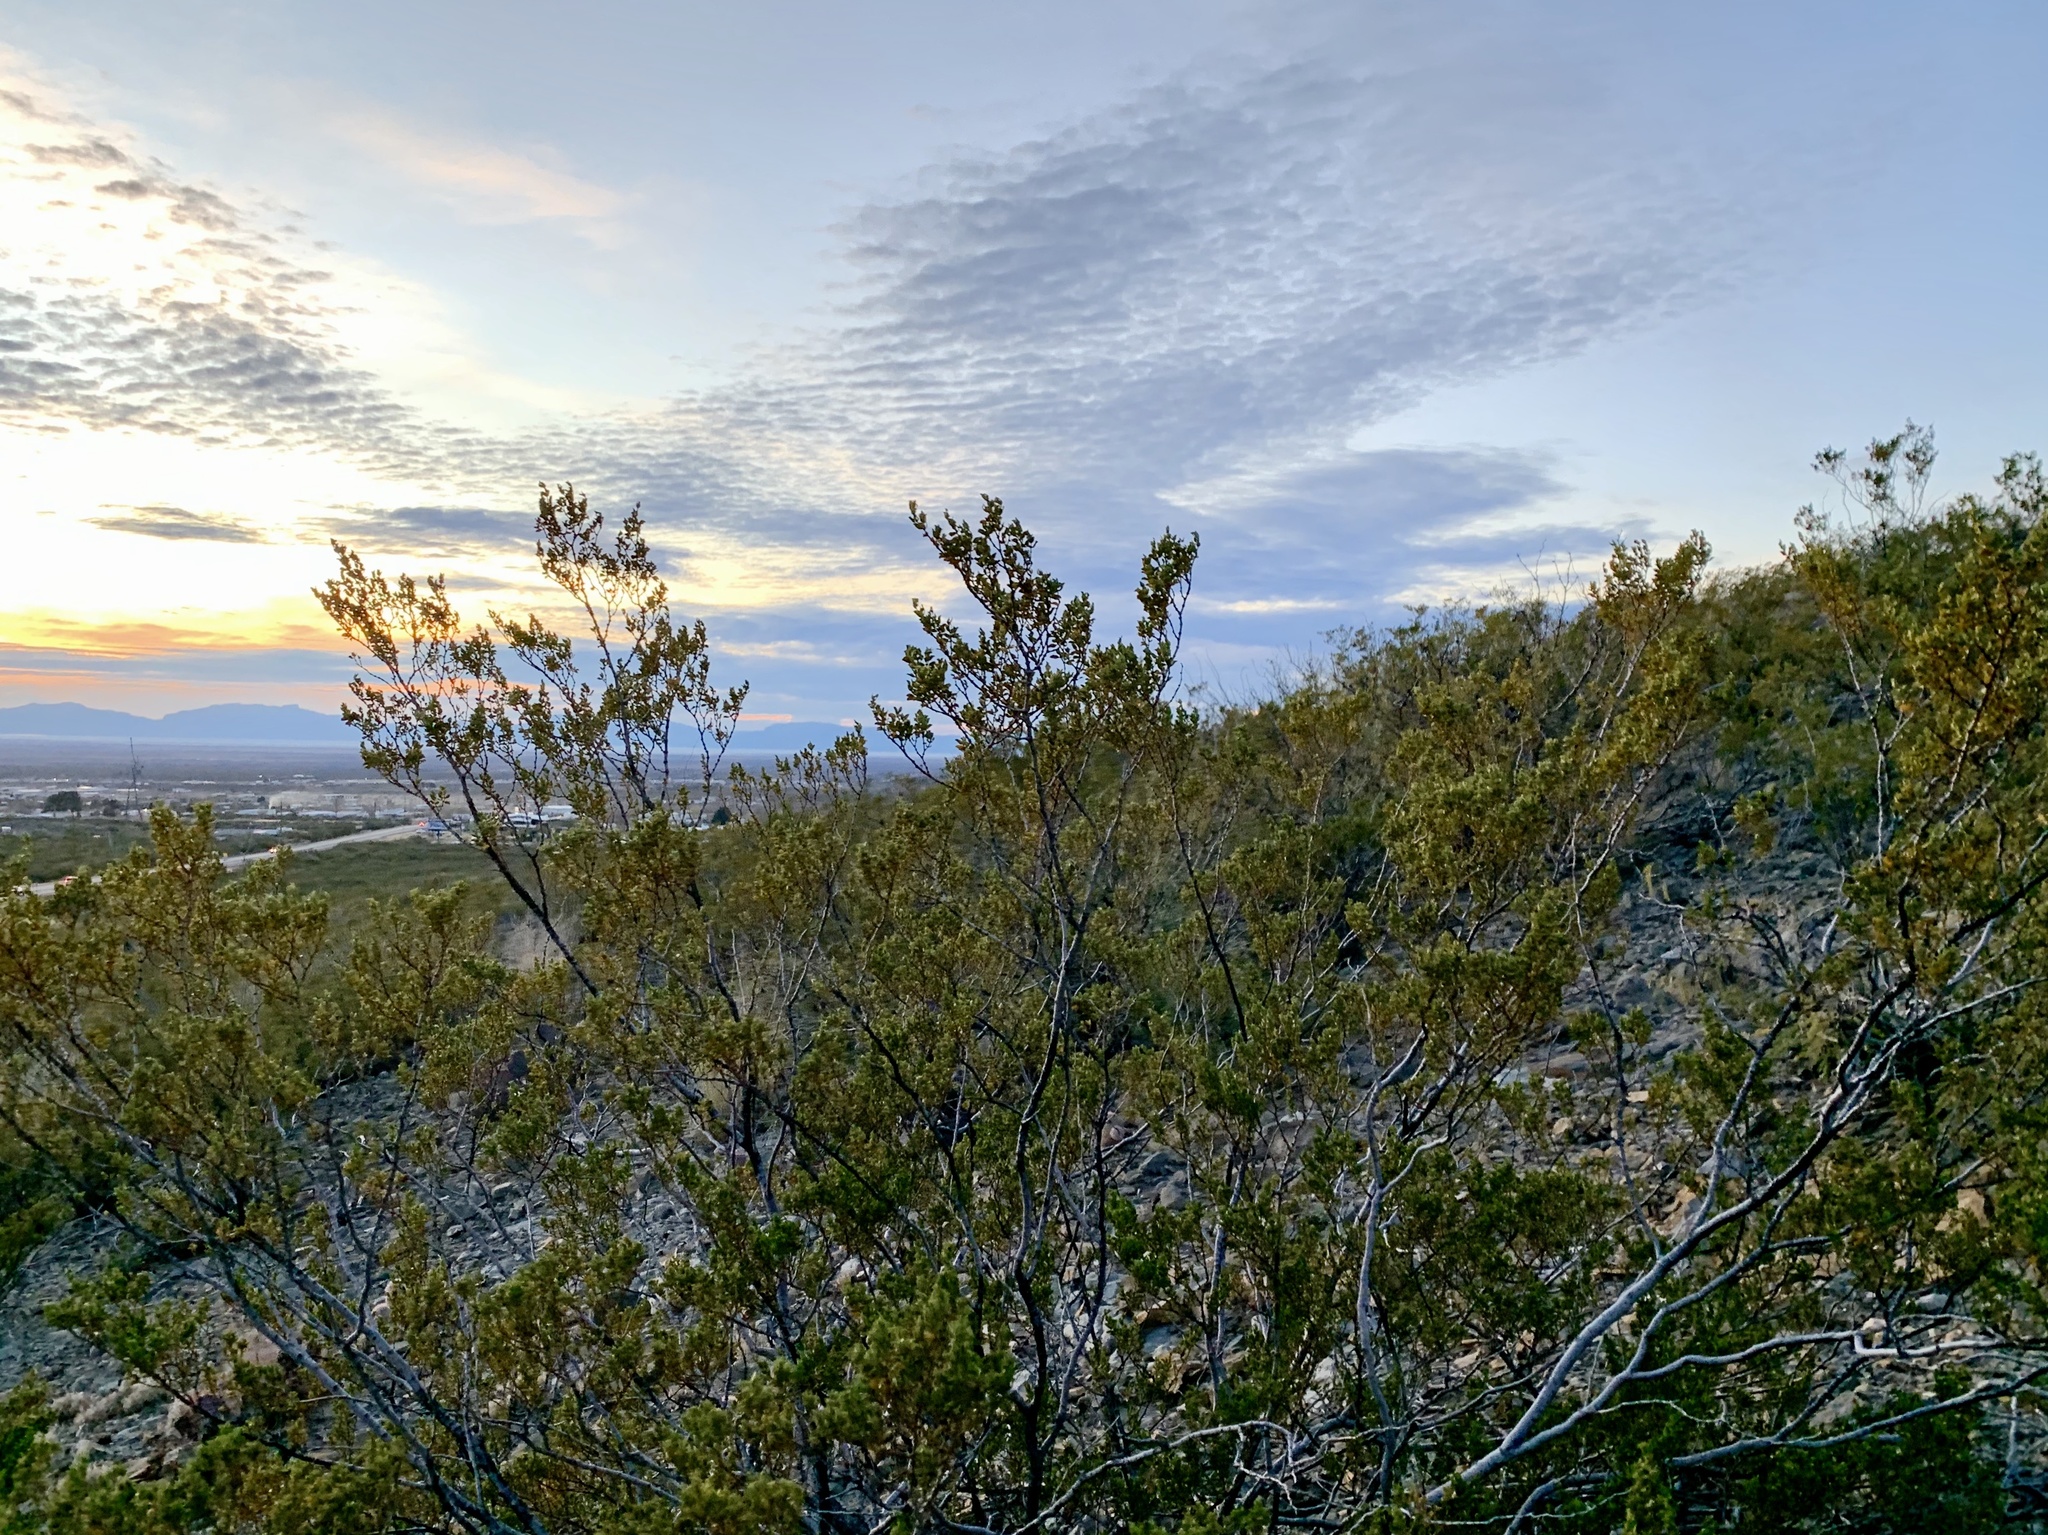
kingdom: Plantae
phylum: Tracheophyta
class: Magnoliopsida
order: Zygophyllales
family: Zygophyllaceae
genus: Larrea
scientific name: Larrea tridentata
